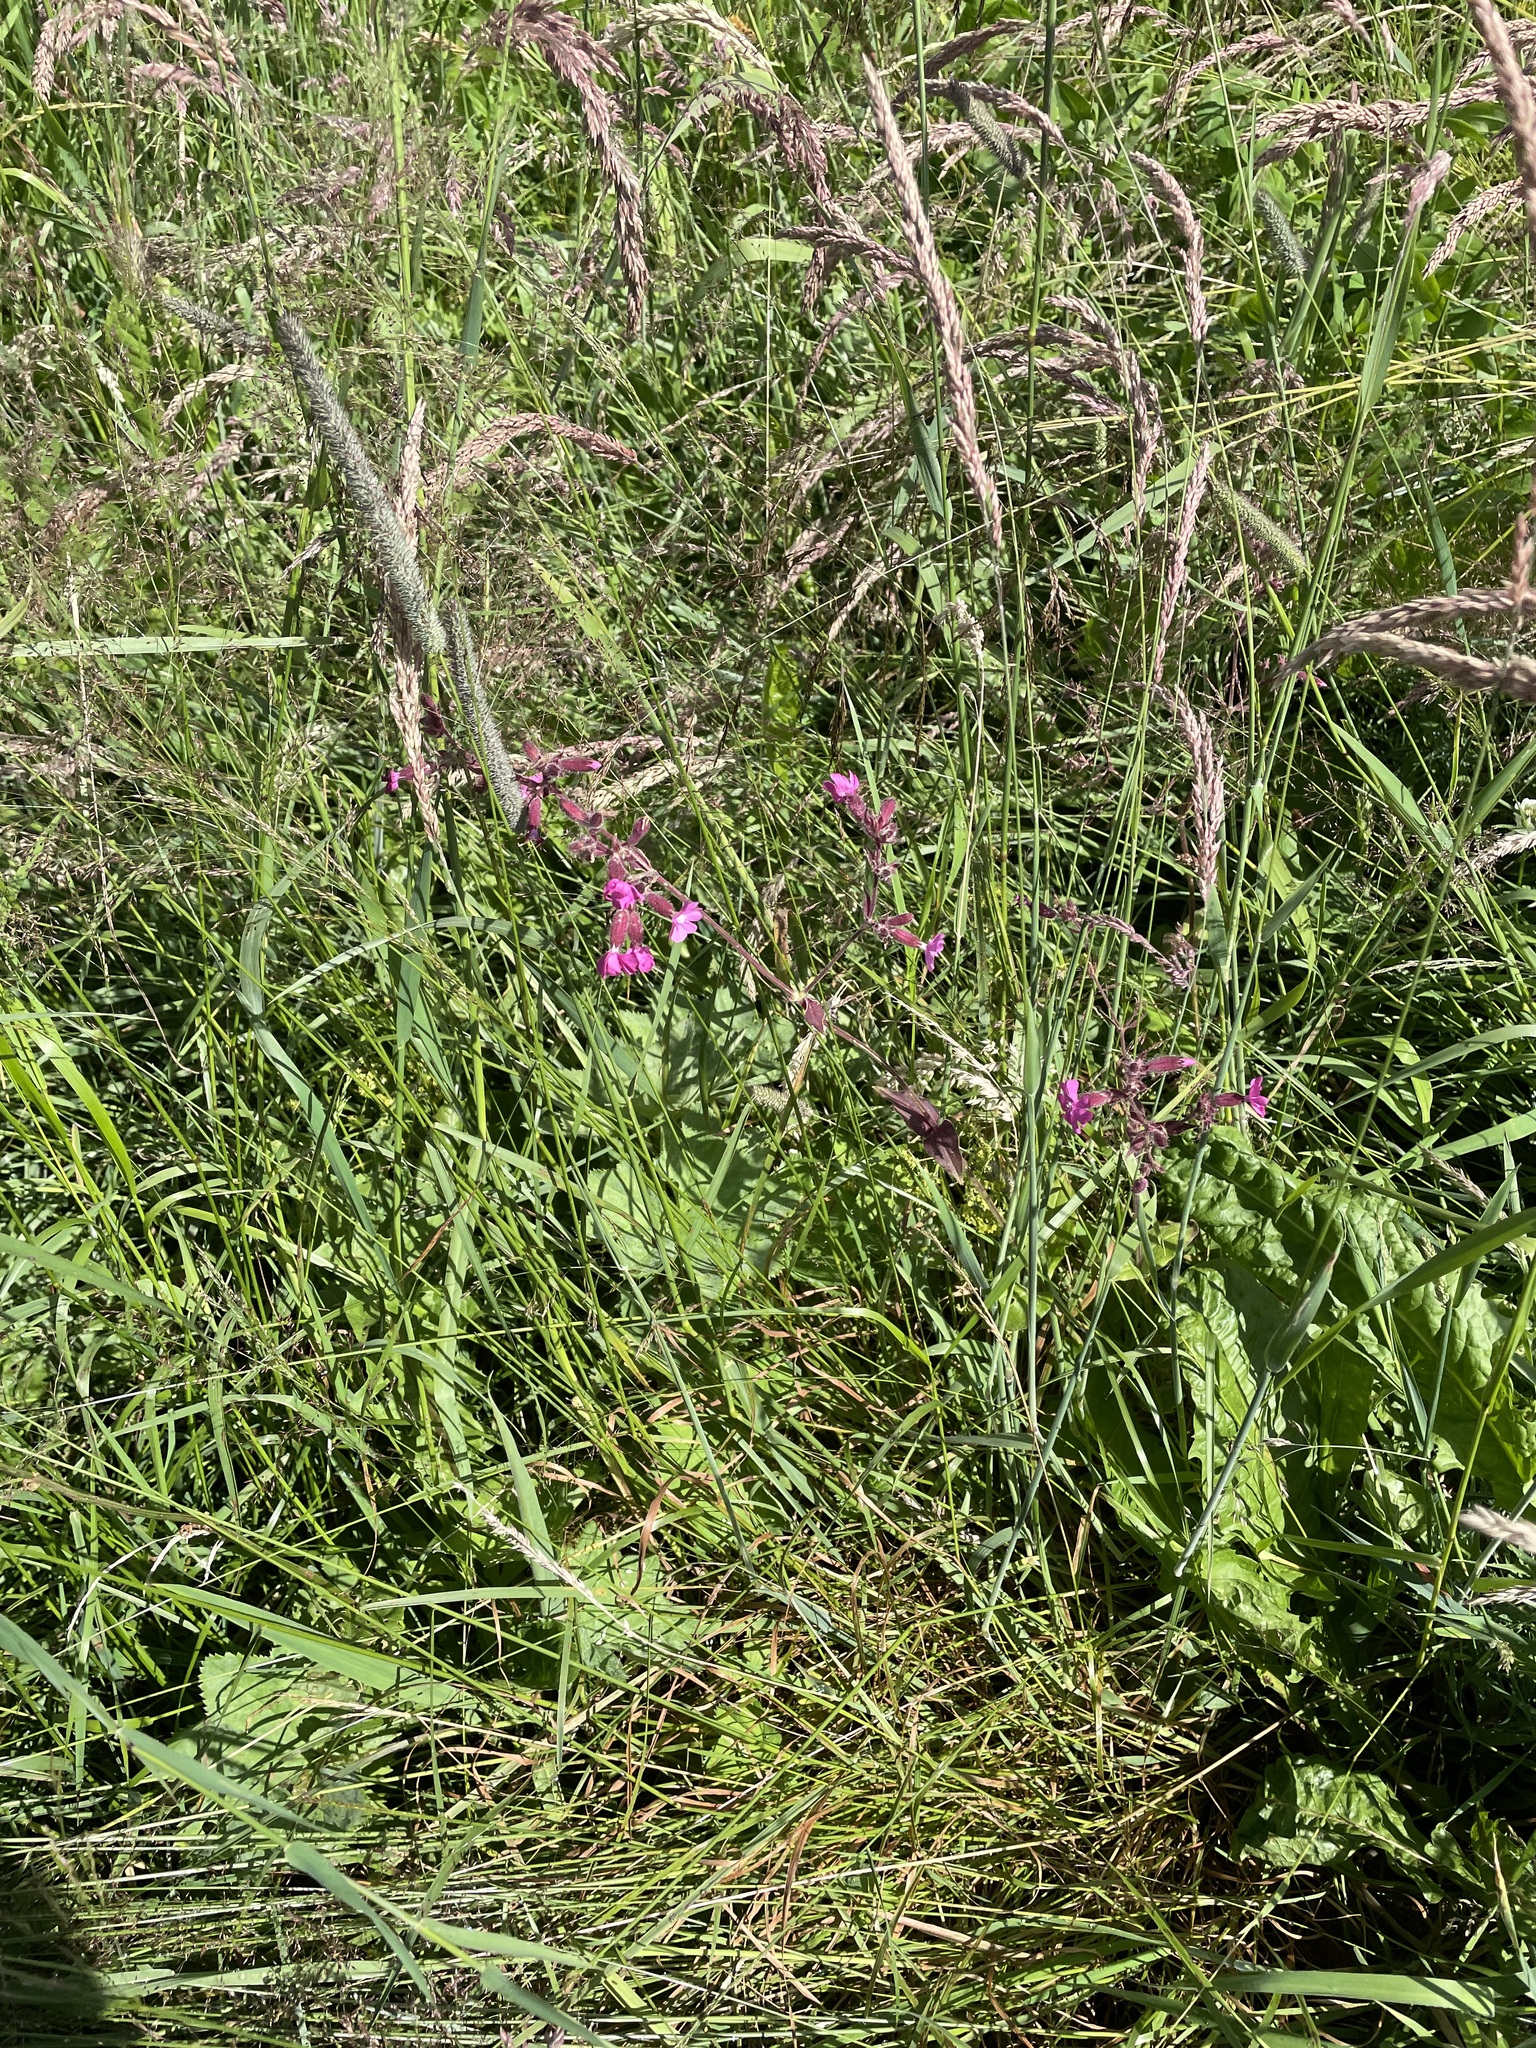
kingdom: Plantae
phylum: Tracheophyta
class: Liliopsida
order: Poales
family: Poaceae
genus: Phleum
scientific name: Phleum pratense
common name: Timothy grass
